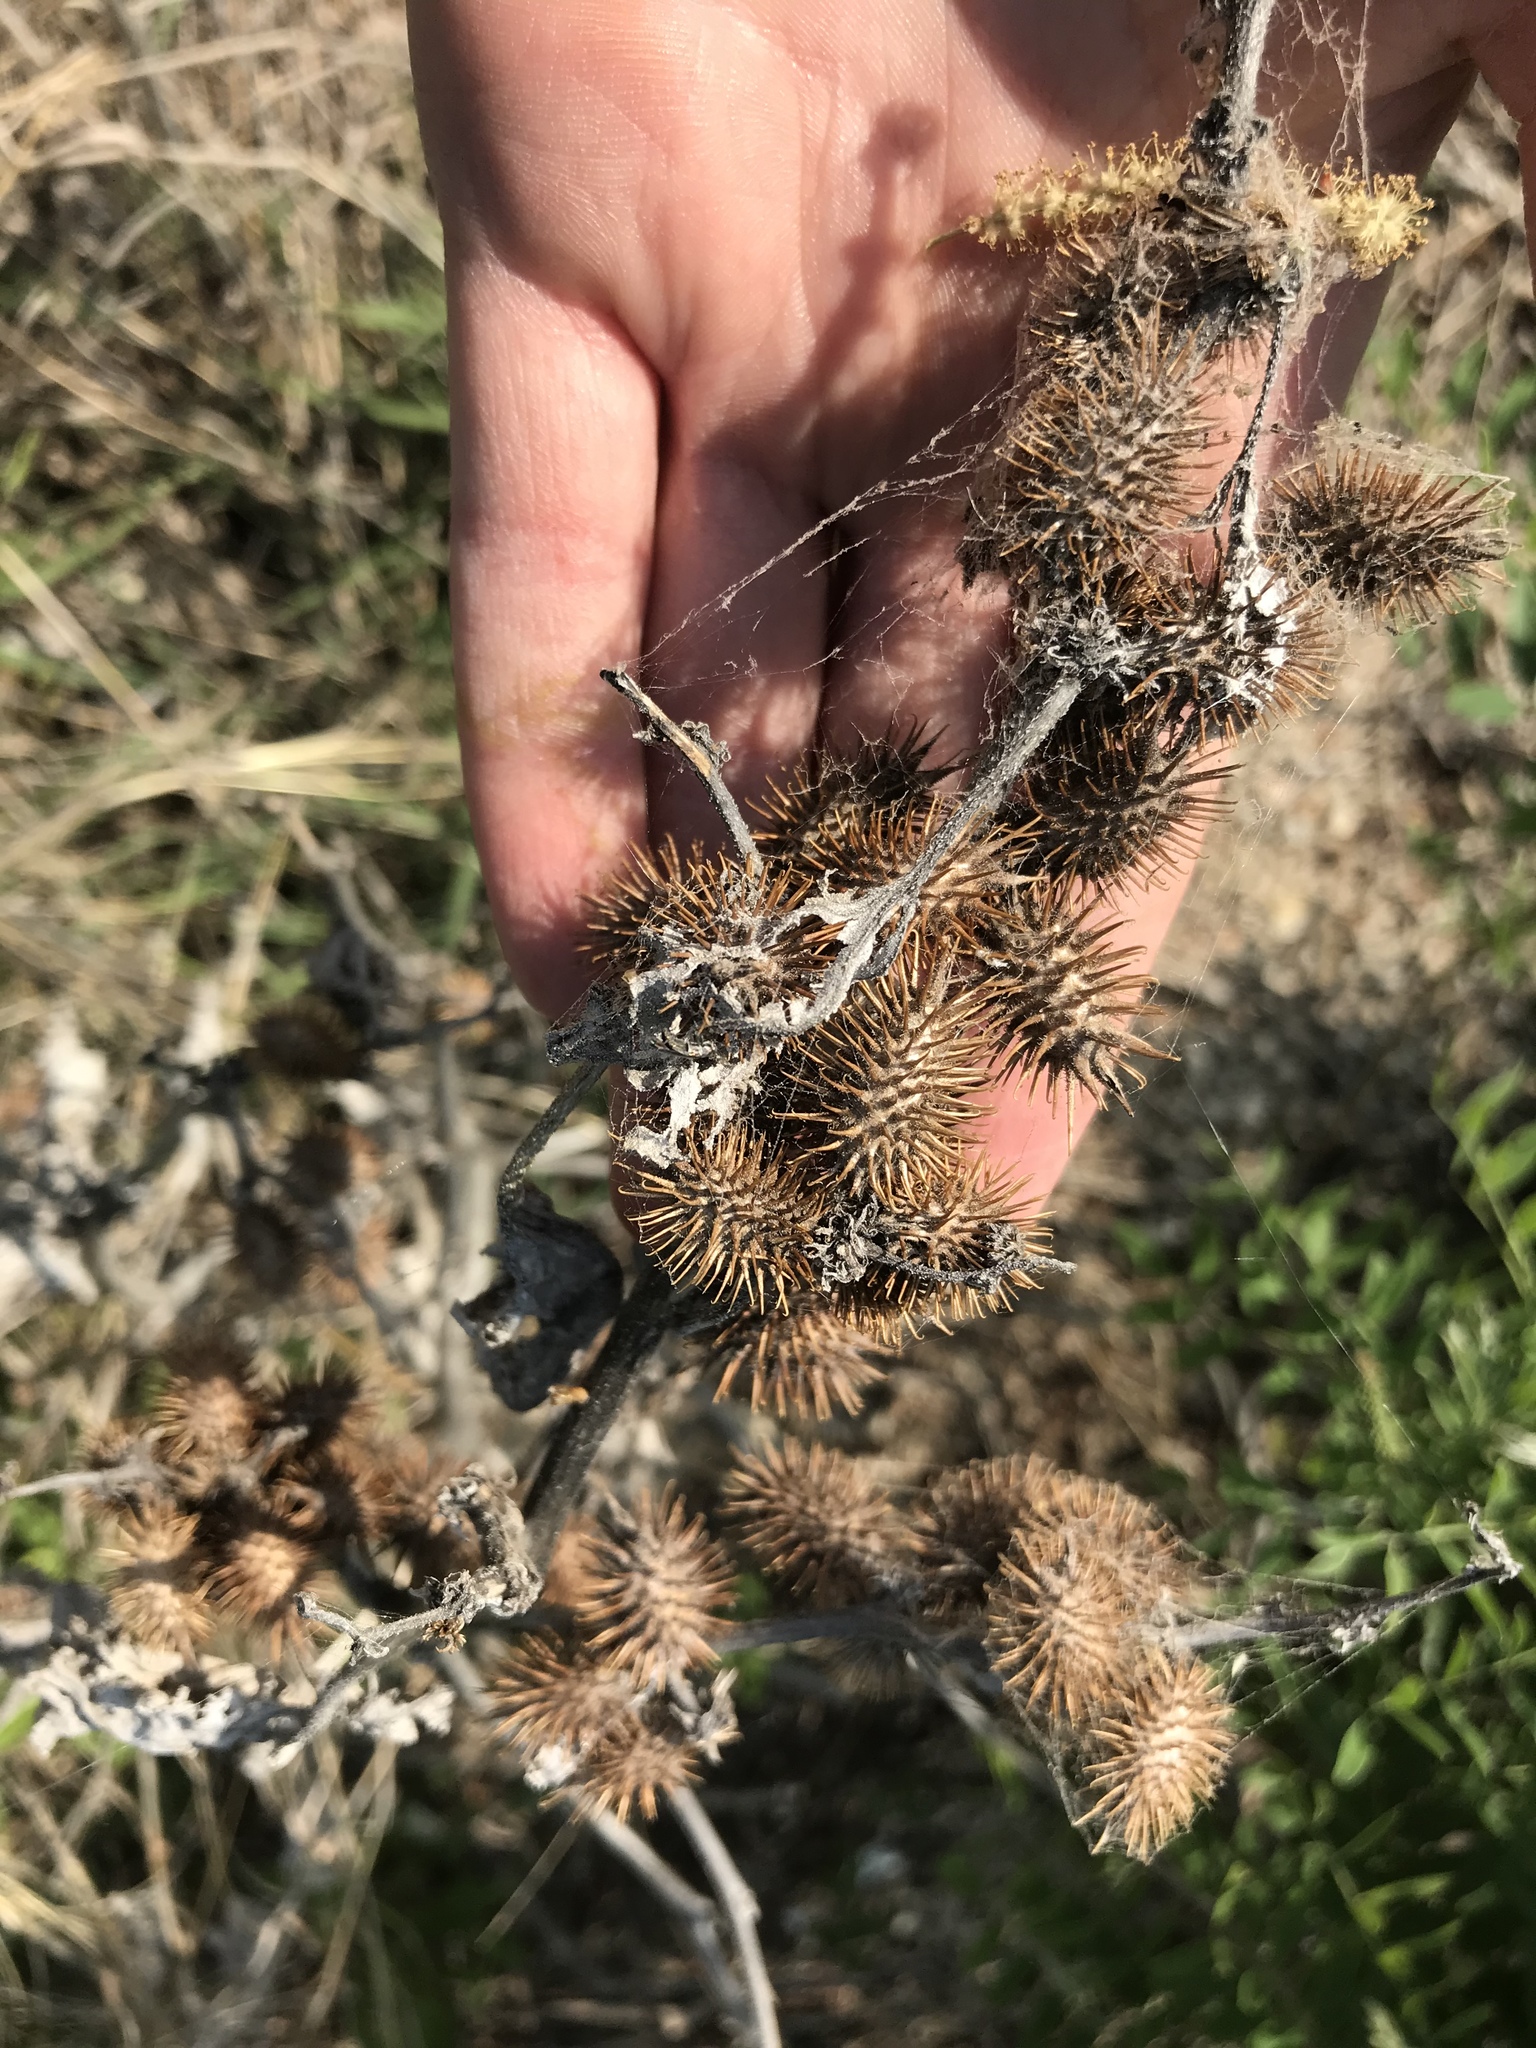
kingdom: Plantae
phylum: Tracheophyta
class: Magnoliopsida
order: Asterales
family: Asteraceae
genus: Xanthium
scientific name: Xanthium strumarium
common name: Rough cocklebur
